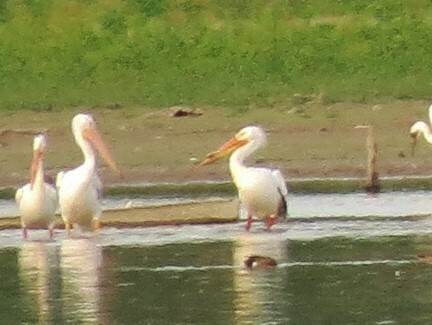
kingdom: Animalia
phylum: Chordata
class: Aves
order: Pelecaniformes
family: Pelecanidae
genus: Pelecanus
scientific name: Pelecanus erythrorhynchos
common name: American white pelican
